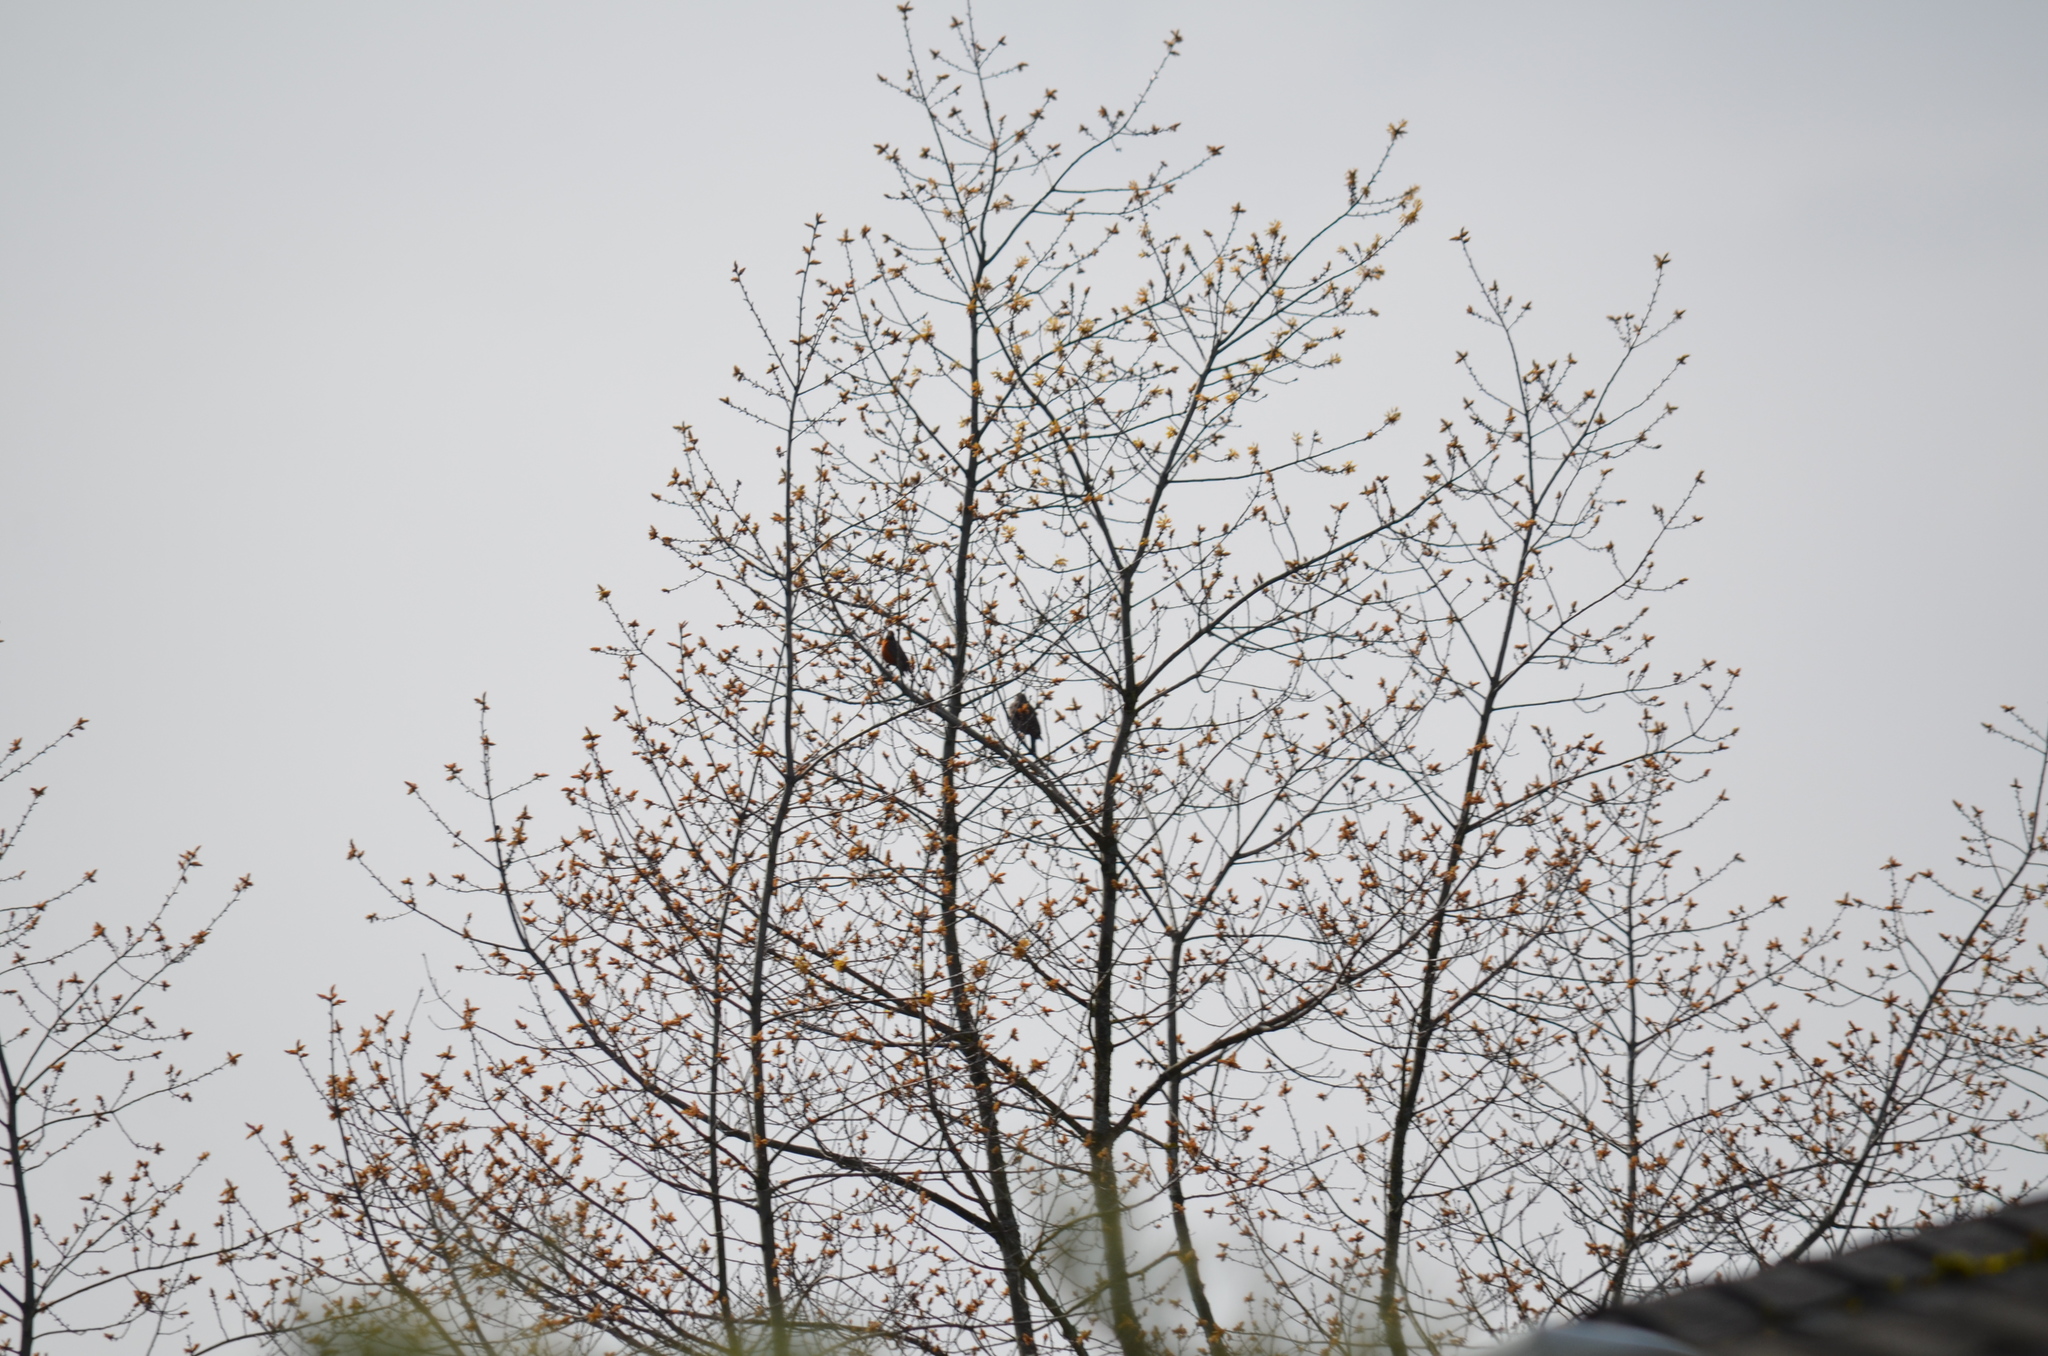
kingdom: Animalia
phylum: Chordata
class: Aves
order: Piciformes
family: Picidae
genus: Colaptes
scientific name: Colaptes auratus
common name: Northern flicker
